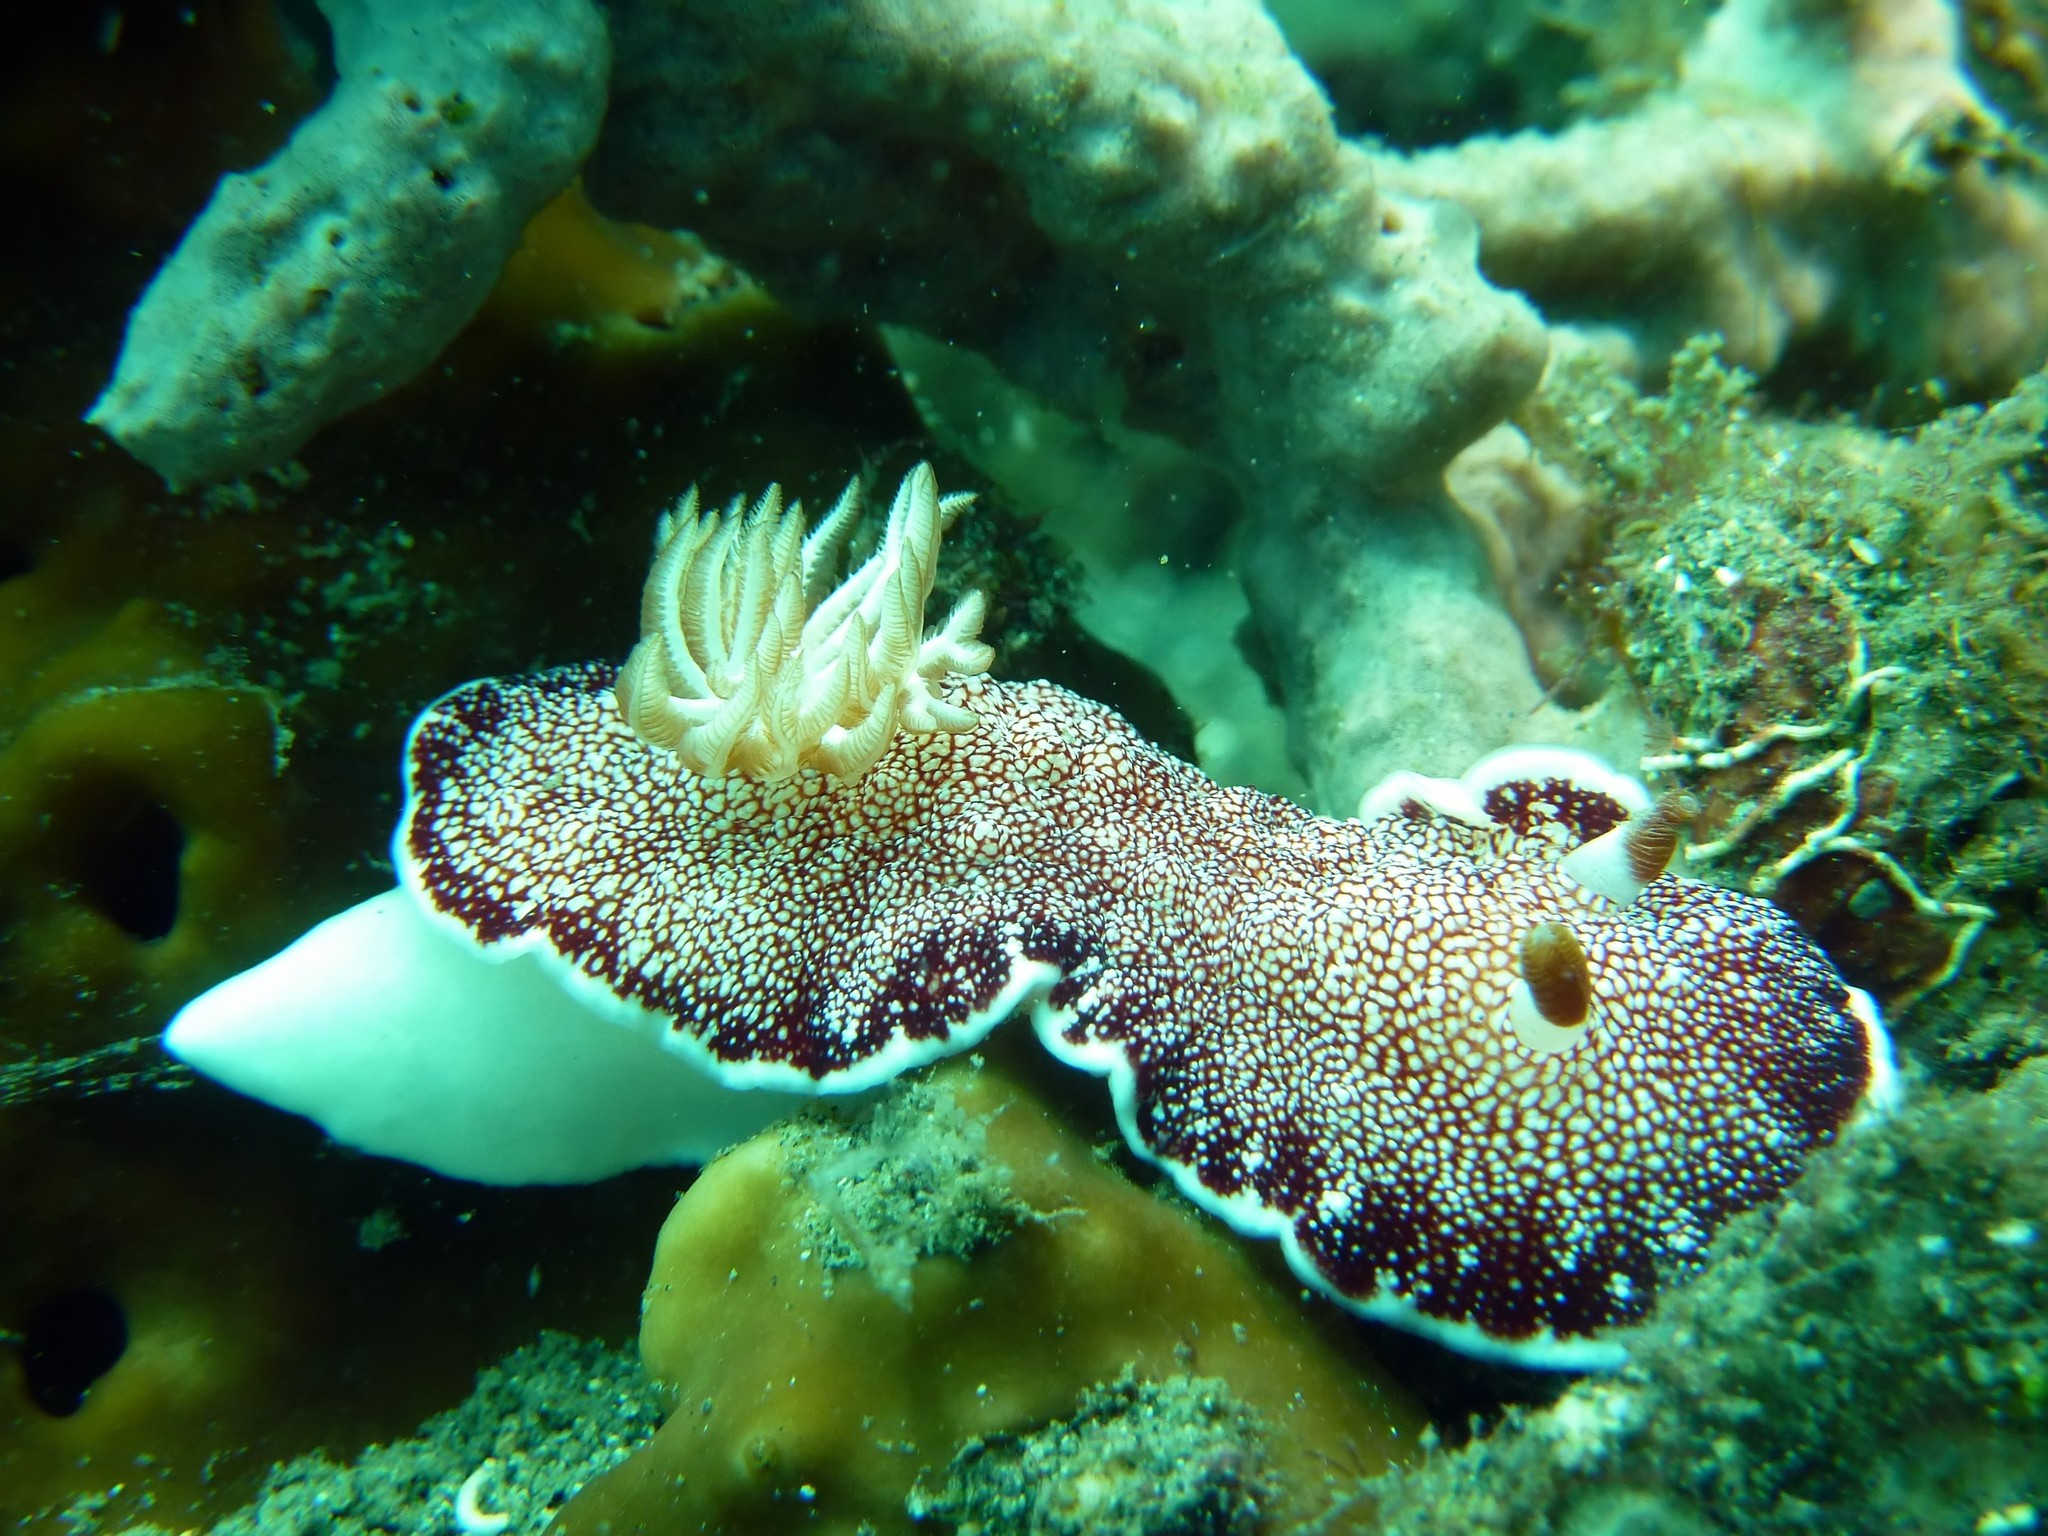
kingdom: Animalia
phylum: Mollusca
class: Gastropoda
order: Nudibranchia
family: Chromodorididae
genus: Goniobranchus
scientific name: Goniobranchus reticulatus
